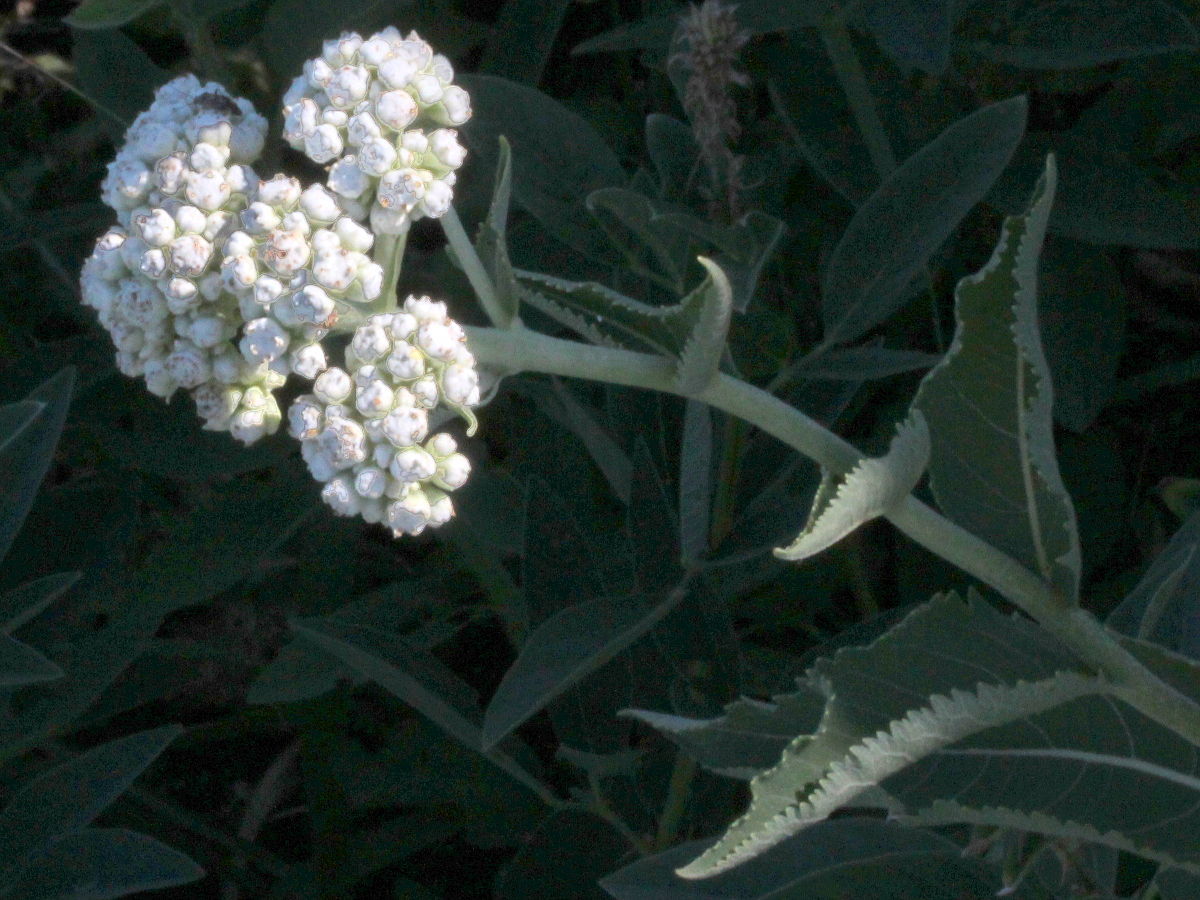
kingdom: Plantae
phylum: Tracheophyta
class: Magnoliopsida
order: Asterales
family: Asteraceae
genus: Parthenium
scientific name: Parthenium integrifolium
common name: American feverfew
